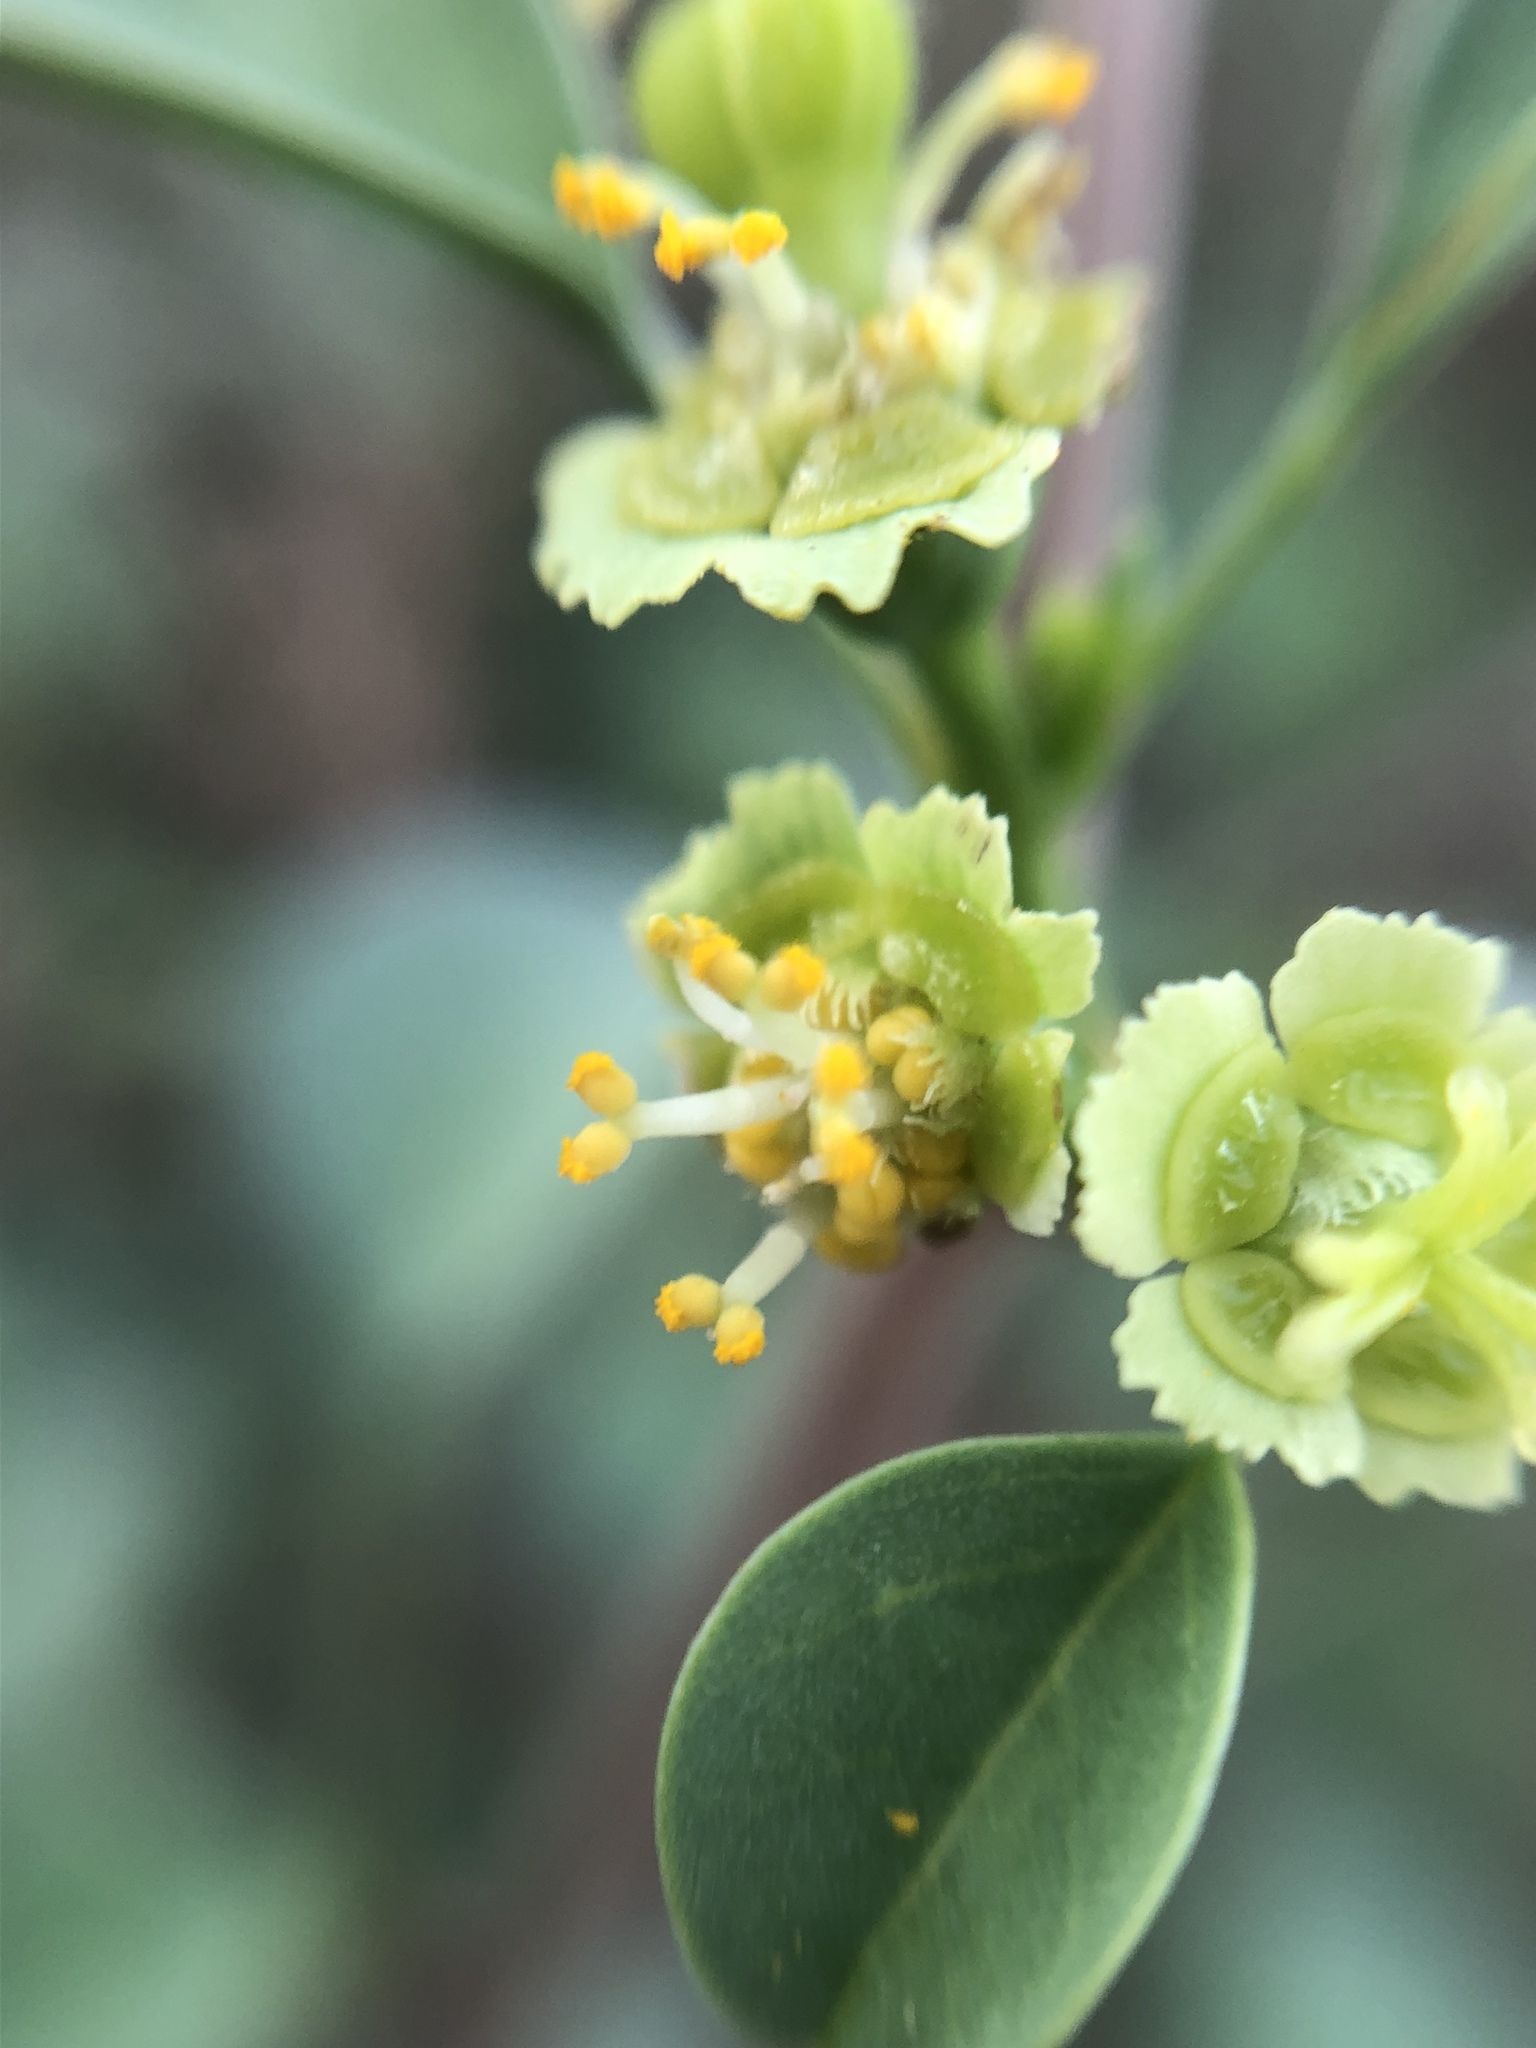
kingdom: Plantae
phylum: Tracheophyta
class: Magnoliopsida
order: Malpighiales
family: Euphorbiaceae
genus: Euphorbia
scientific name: Euphorbia californica
